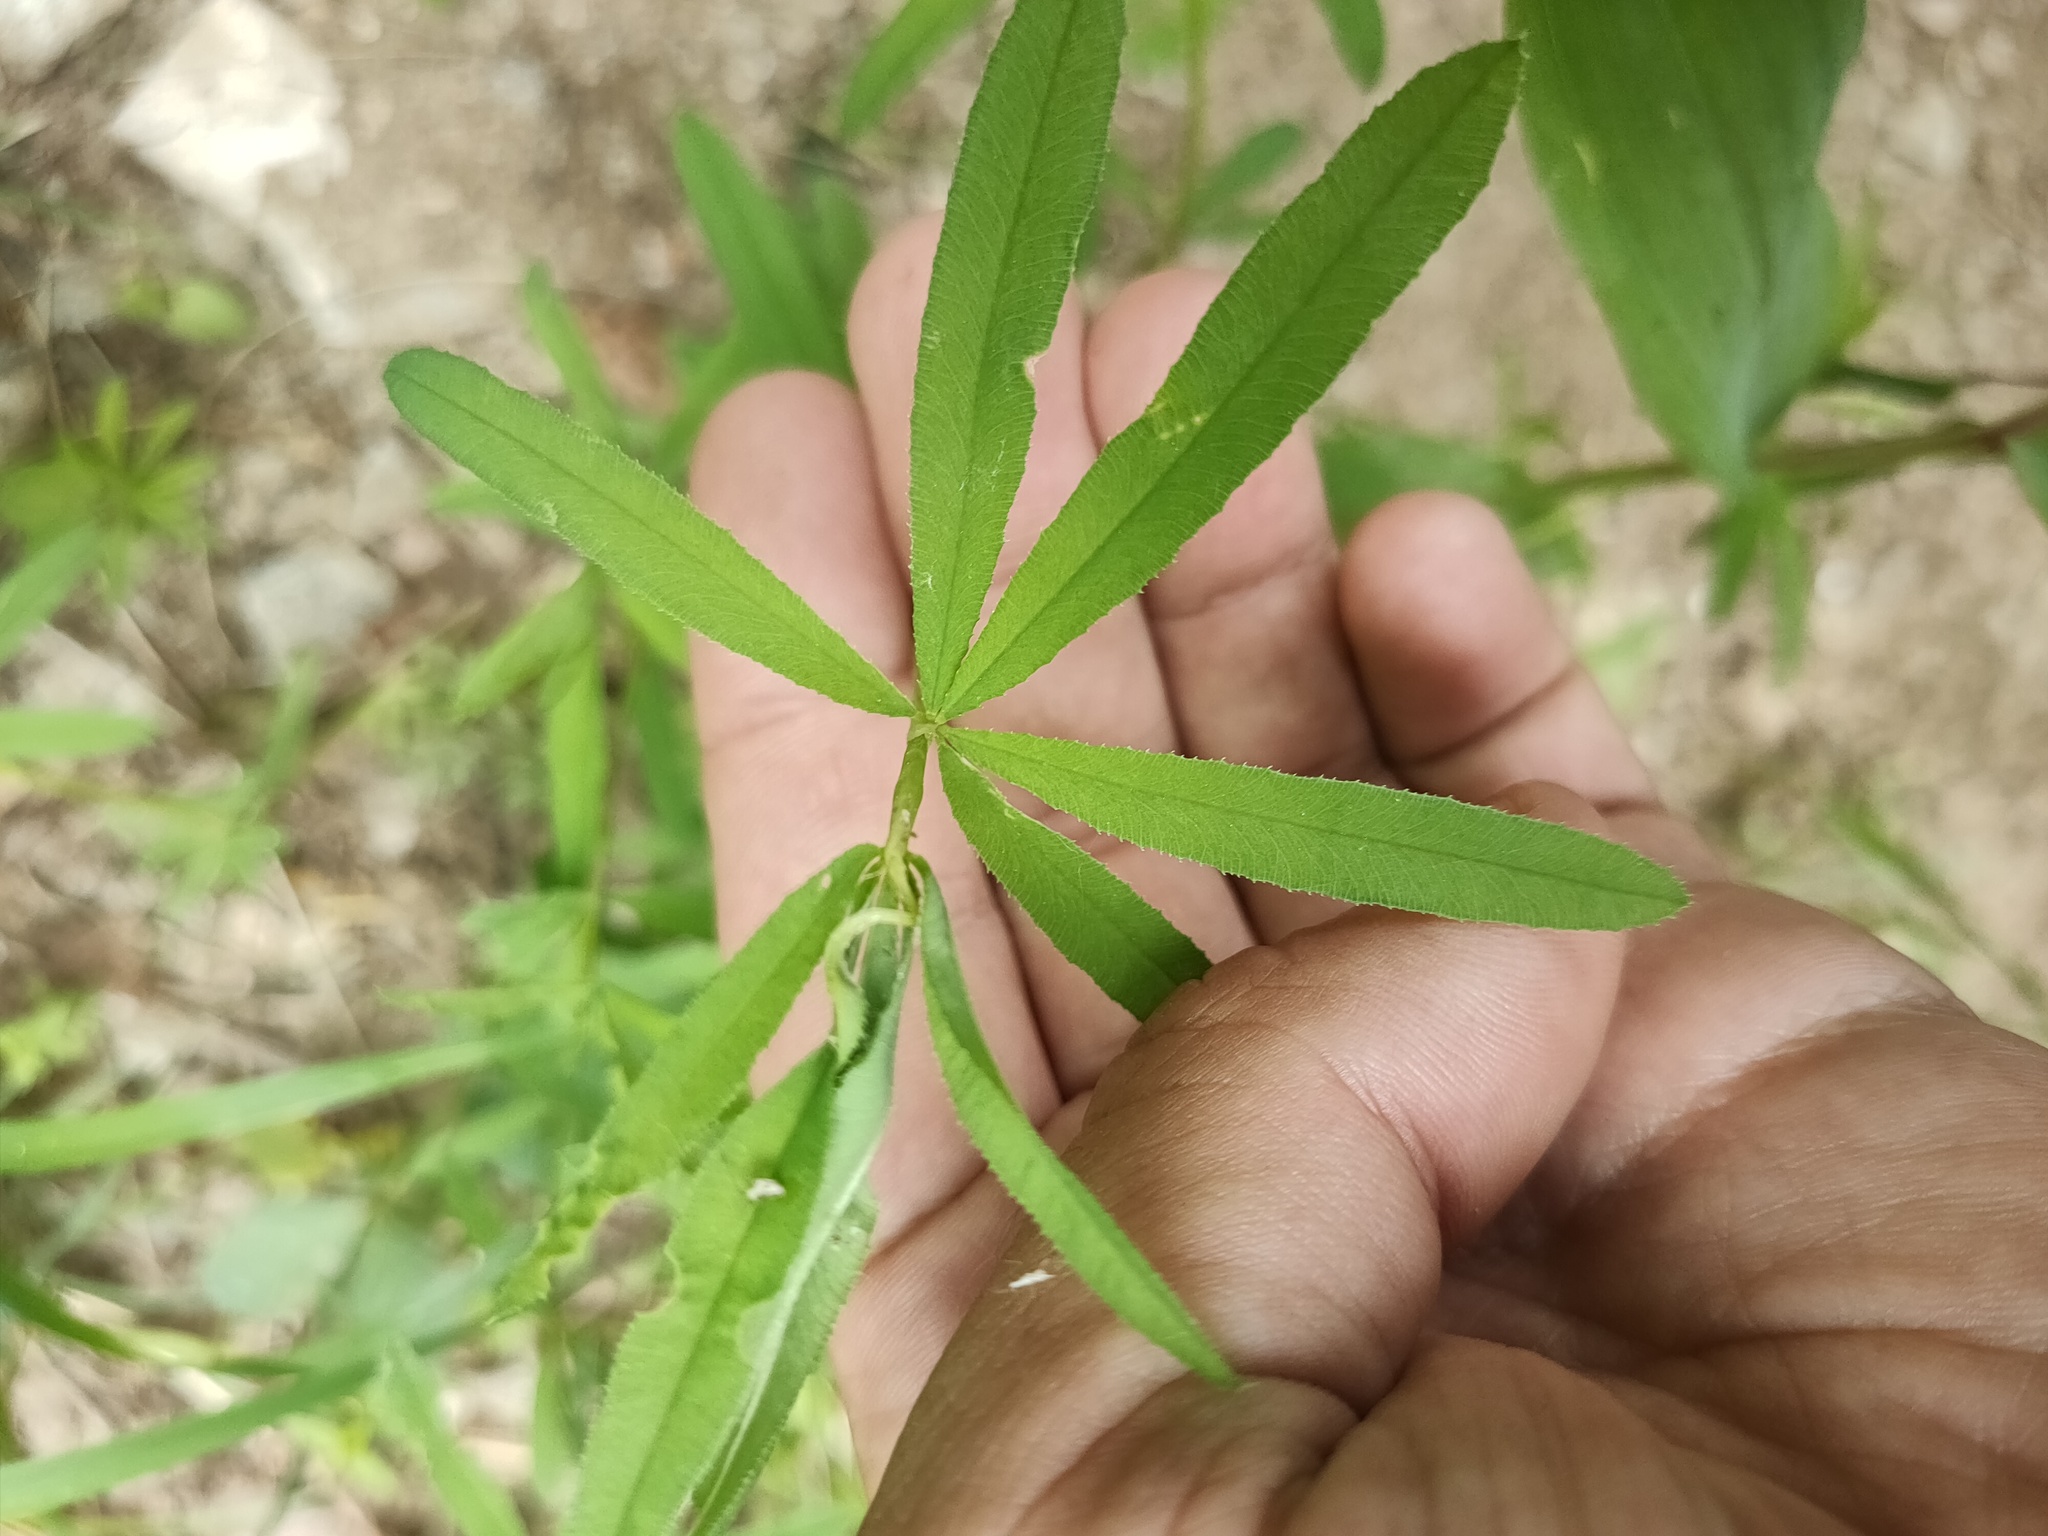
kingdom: Plantae
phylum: Tracheophyta
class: Magnoliopsida
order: Fabales
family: Fabaceae
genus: Trifolium
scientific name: Trifolium lupinaster
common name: Lupine clover
